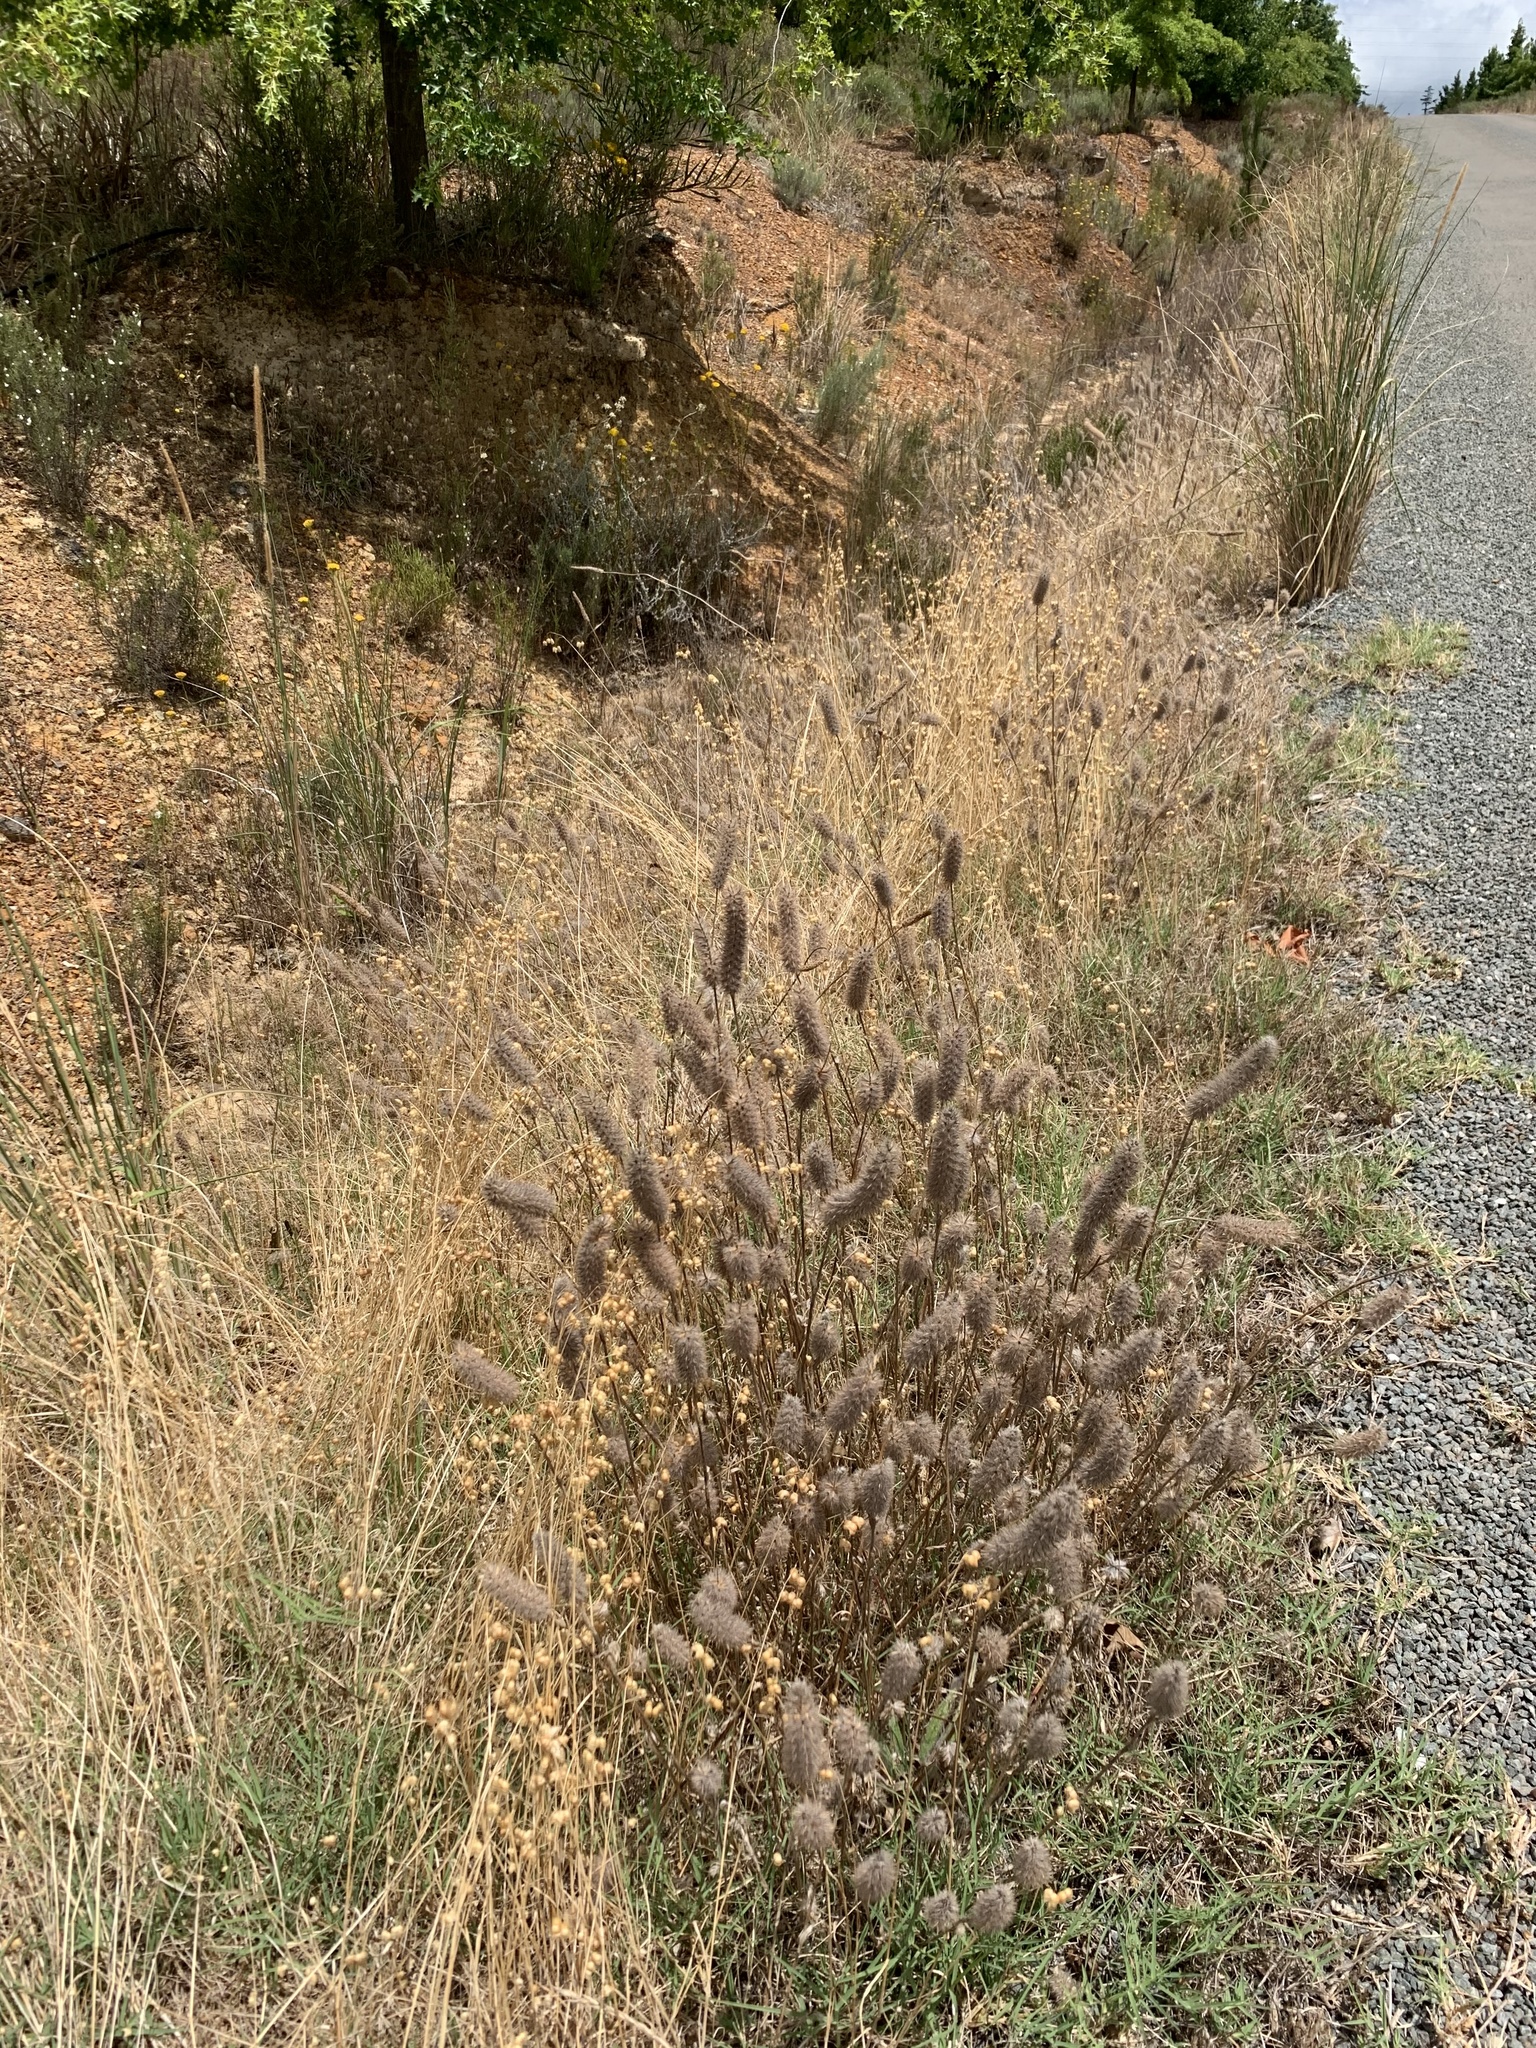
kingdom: Plantae
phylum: Tracheophyta
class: Magnoliopsida
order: Fabales
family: Fabaceae
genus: Trifolium
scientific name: Trifolium angustifolium
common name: Narrow clover
